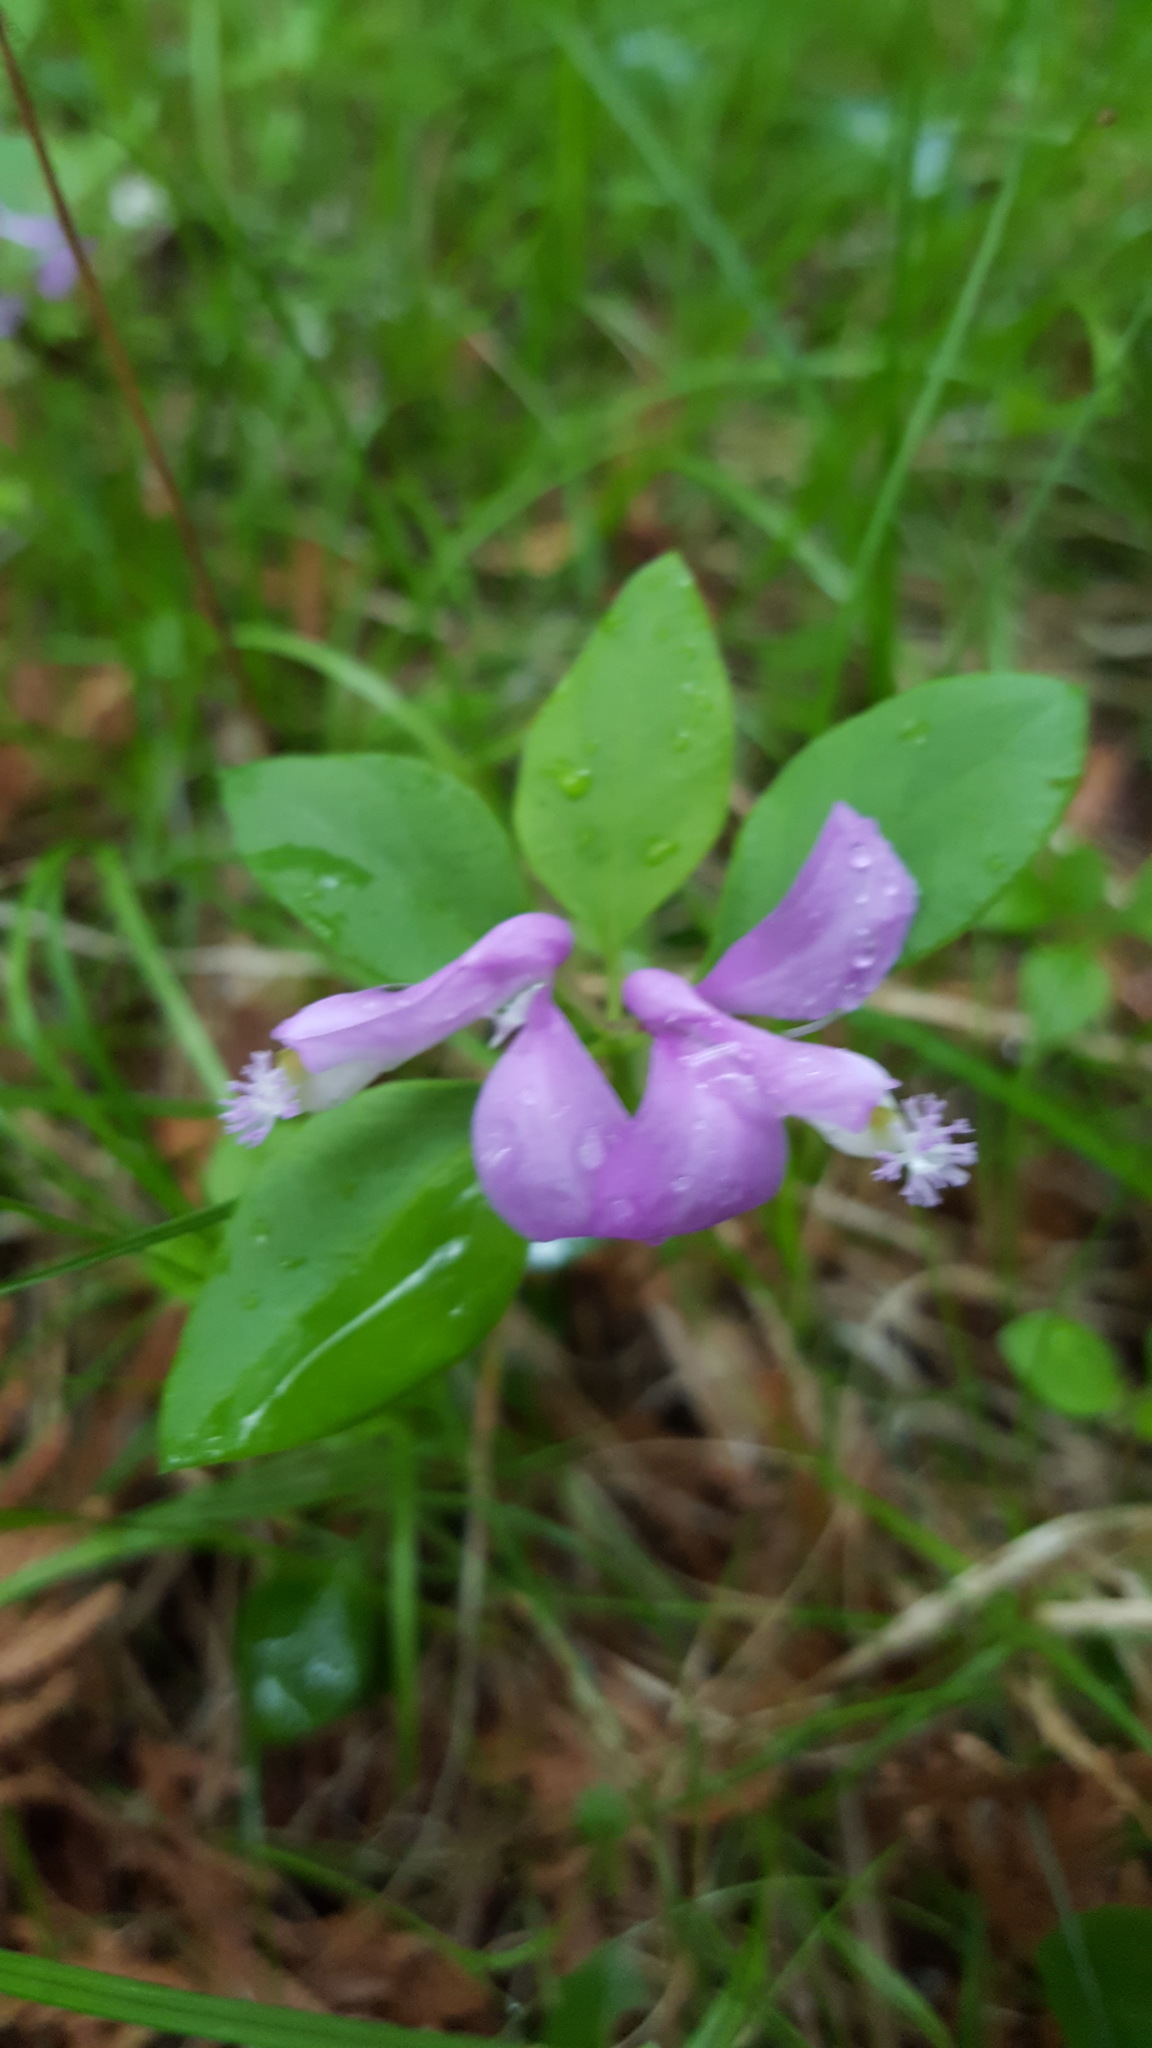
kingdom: Plantae
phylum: Tracheophyta
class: Magnoliopsida
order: Fabales
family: Polygalaceae
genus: Polygaloides
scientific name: Polygaloides paucifolia
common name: Bird-on-the-wing
